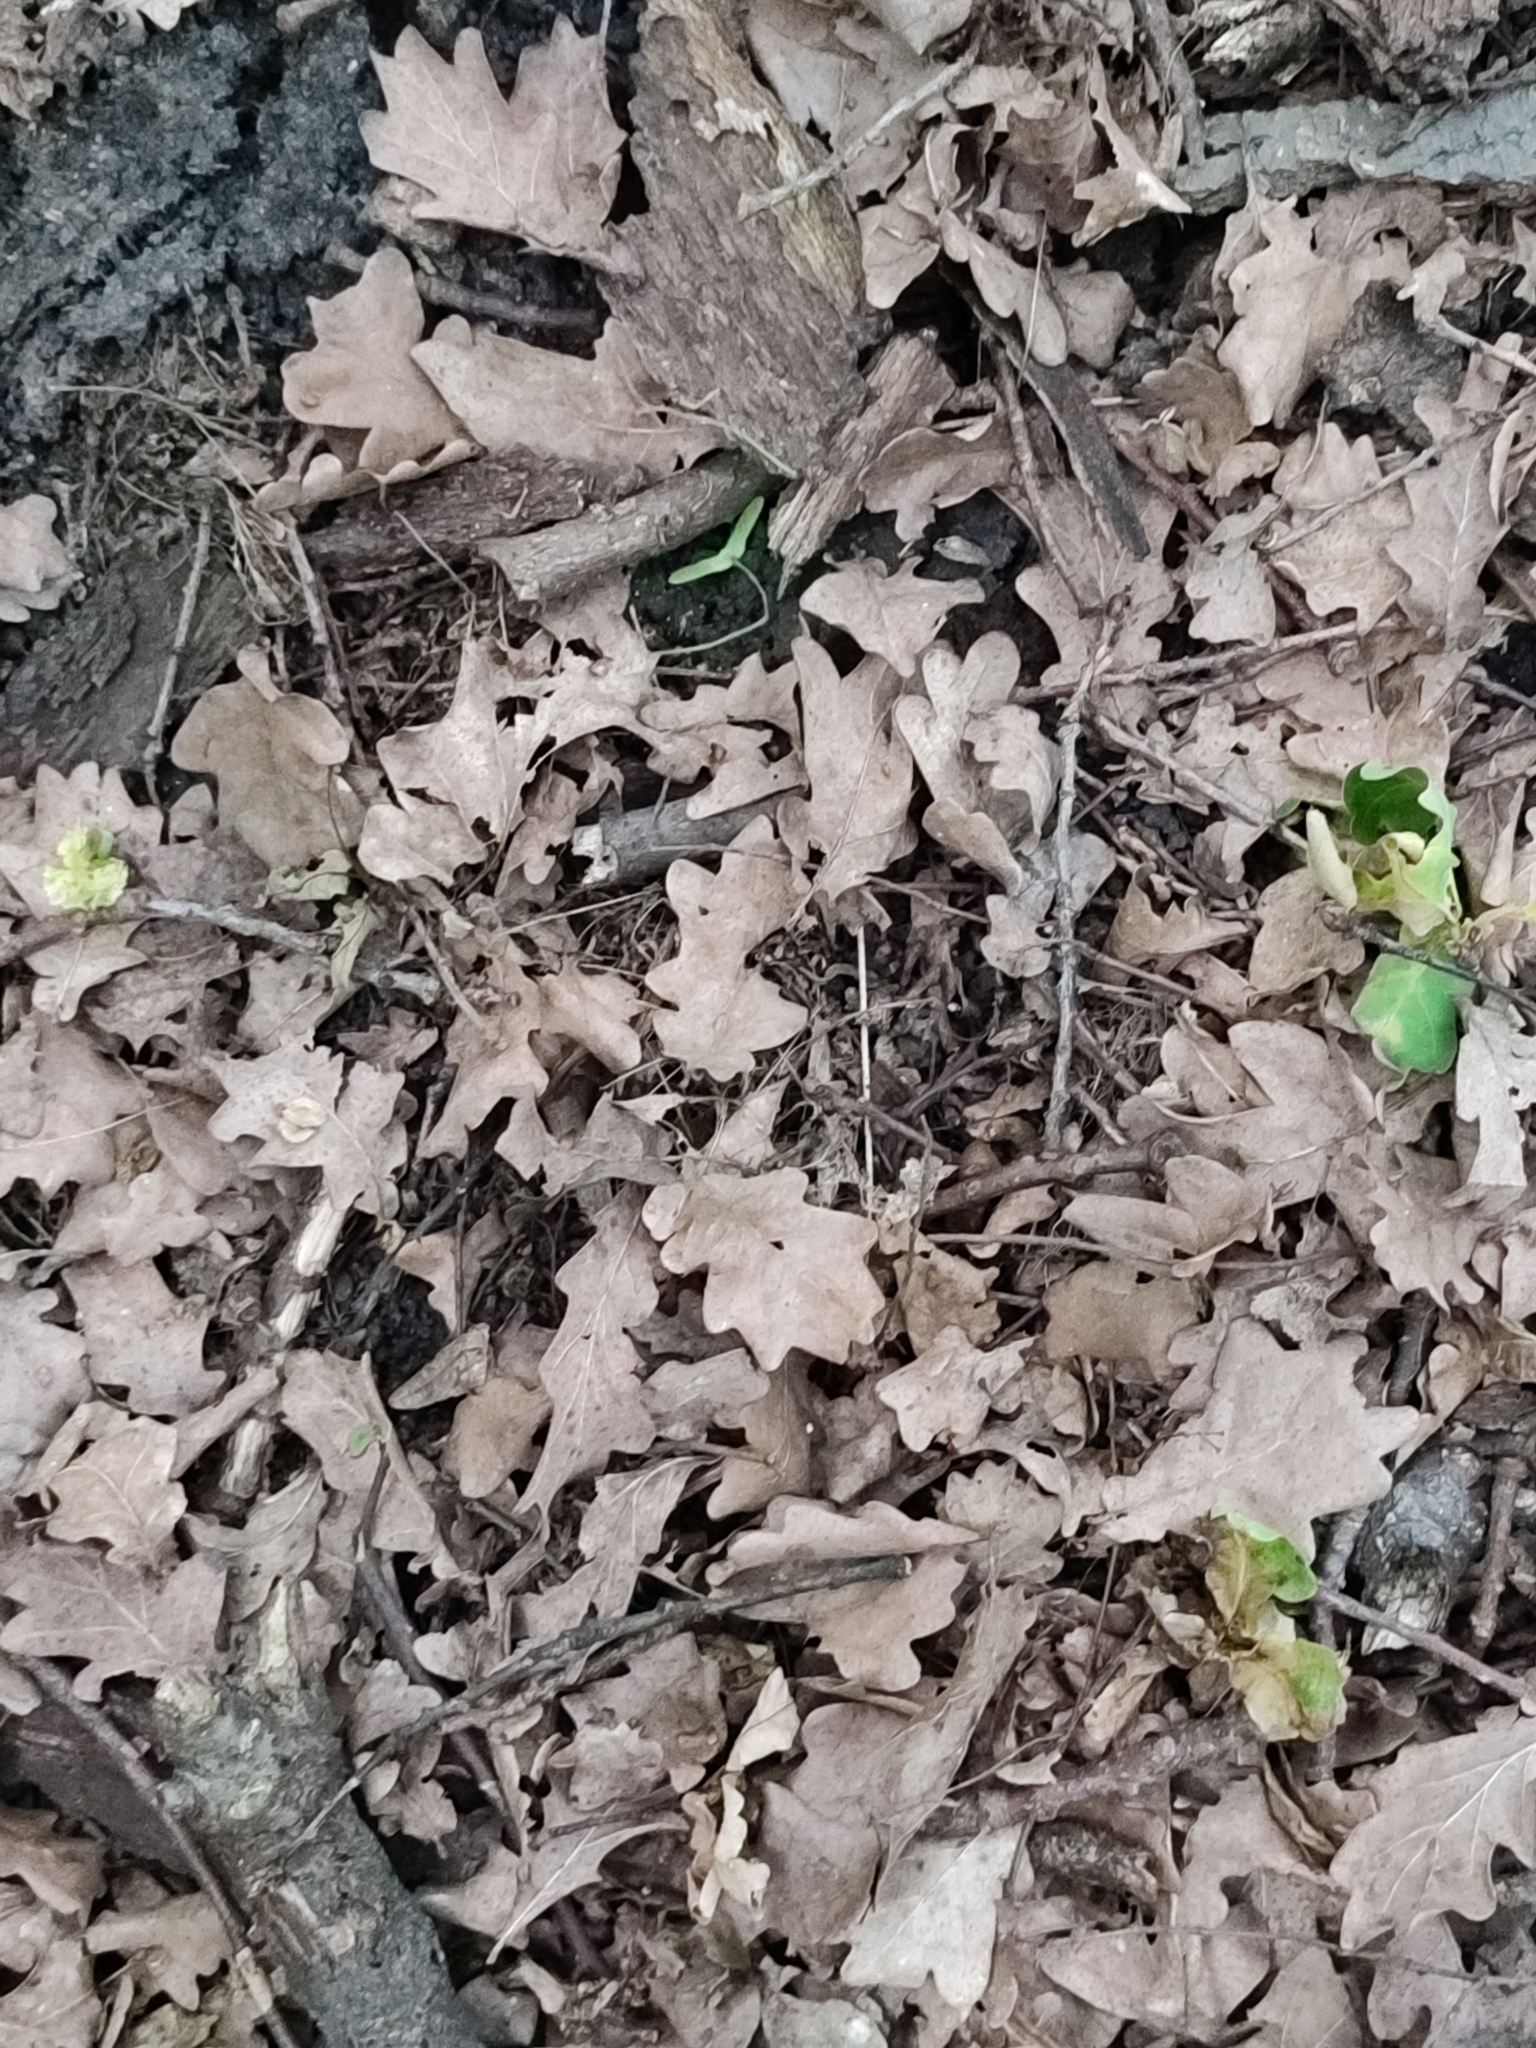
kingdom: Plantae
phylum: Tracheophyta
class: Magnoliopsida
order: Fagales
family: Fagaceae
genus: Quercus
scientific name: Quercus robur
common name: Pedunculate oak
